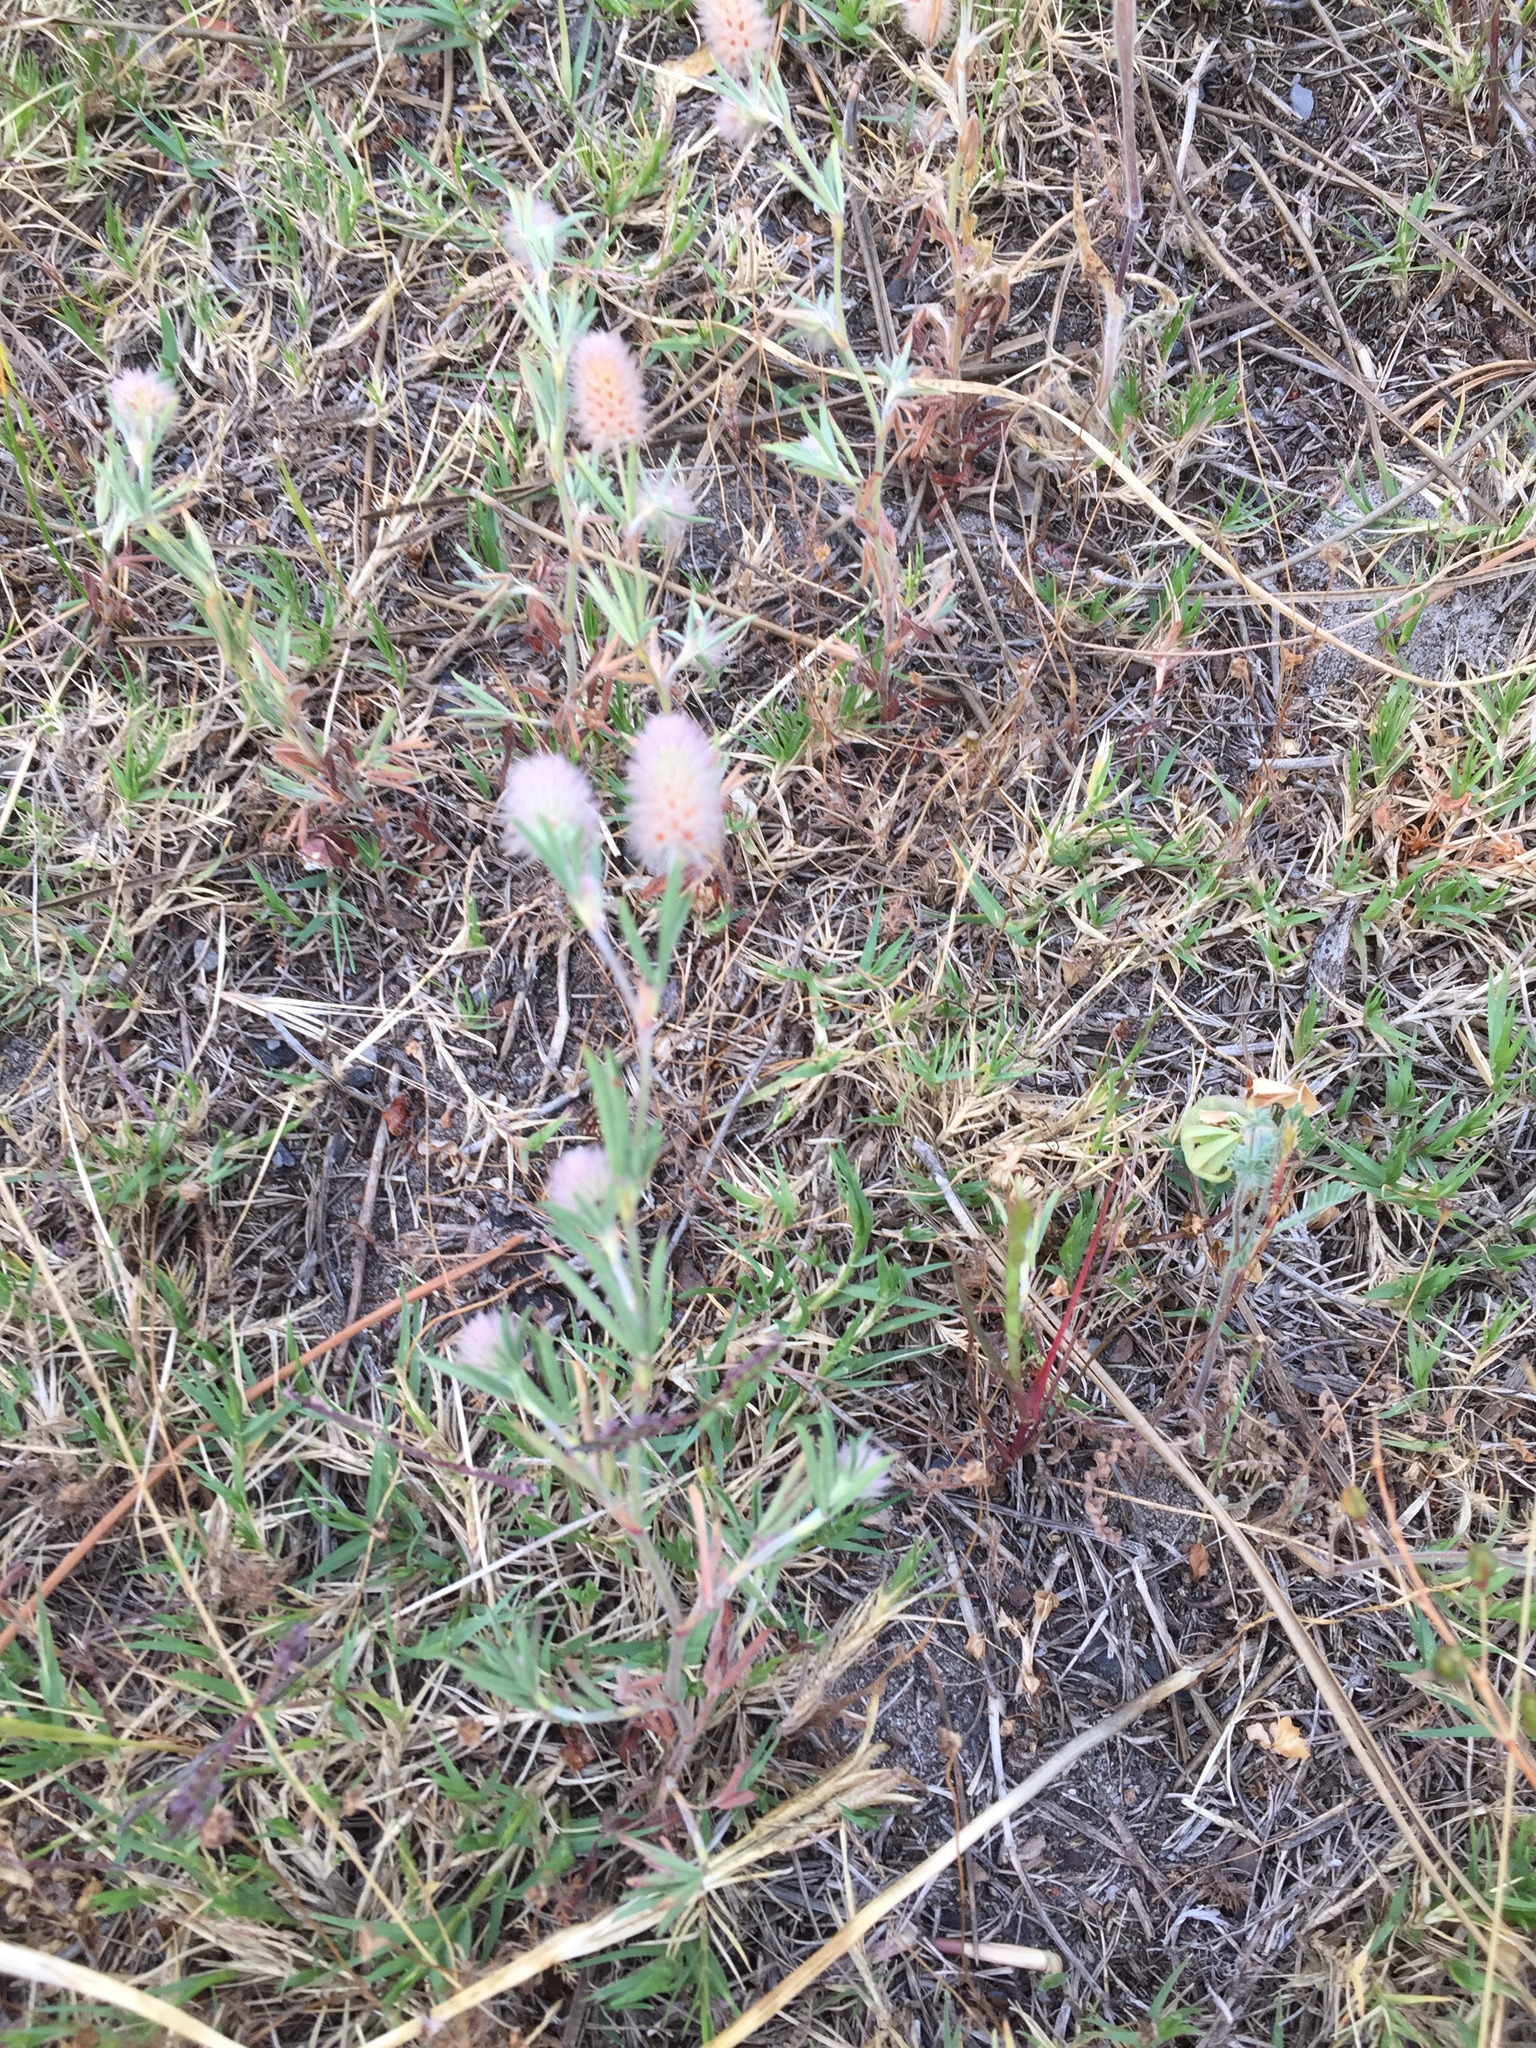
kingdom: Plantae
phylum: Tracheophyta
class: Magnoliopsida
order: Fabales
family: Fabaceae
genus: Trifolium
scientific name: Trifolium arvense
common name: Hare's-foot clover
